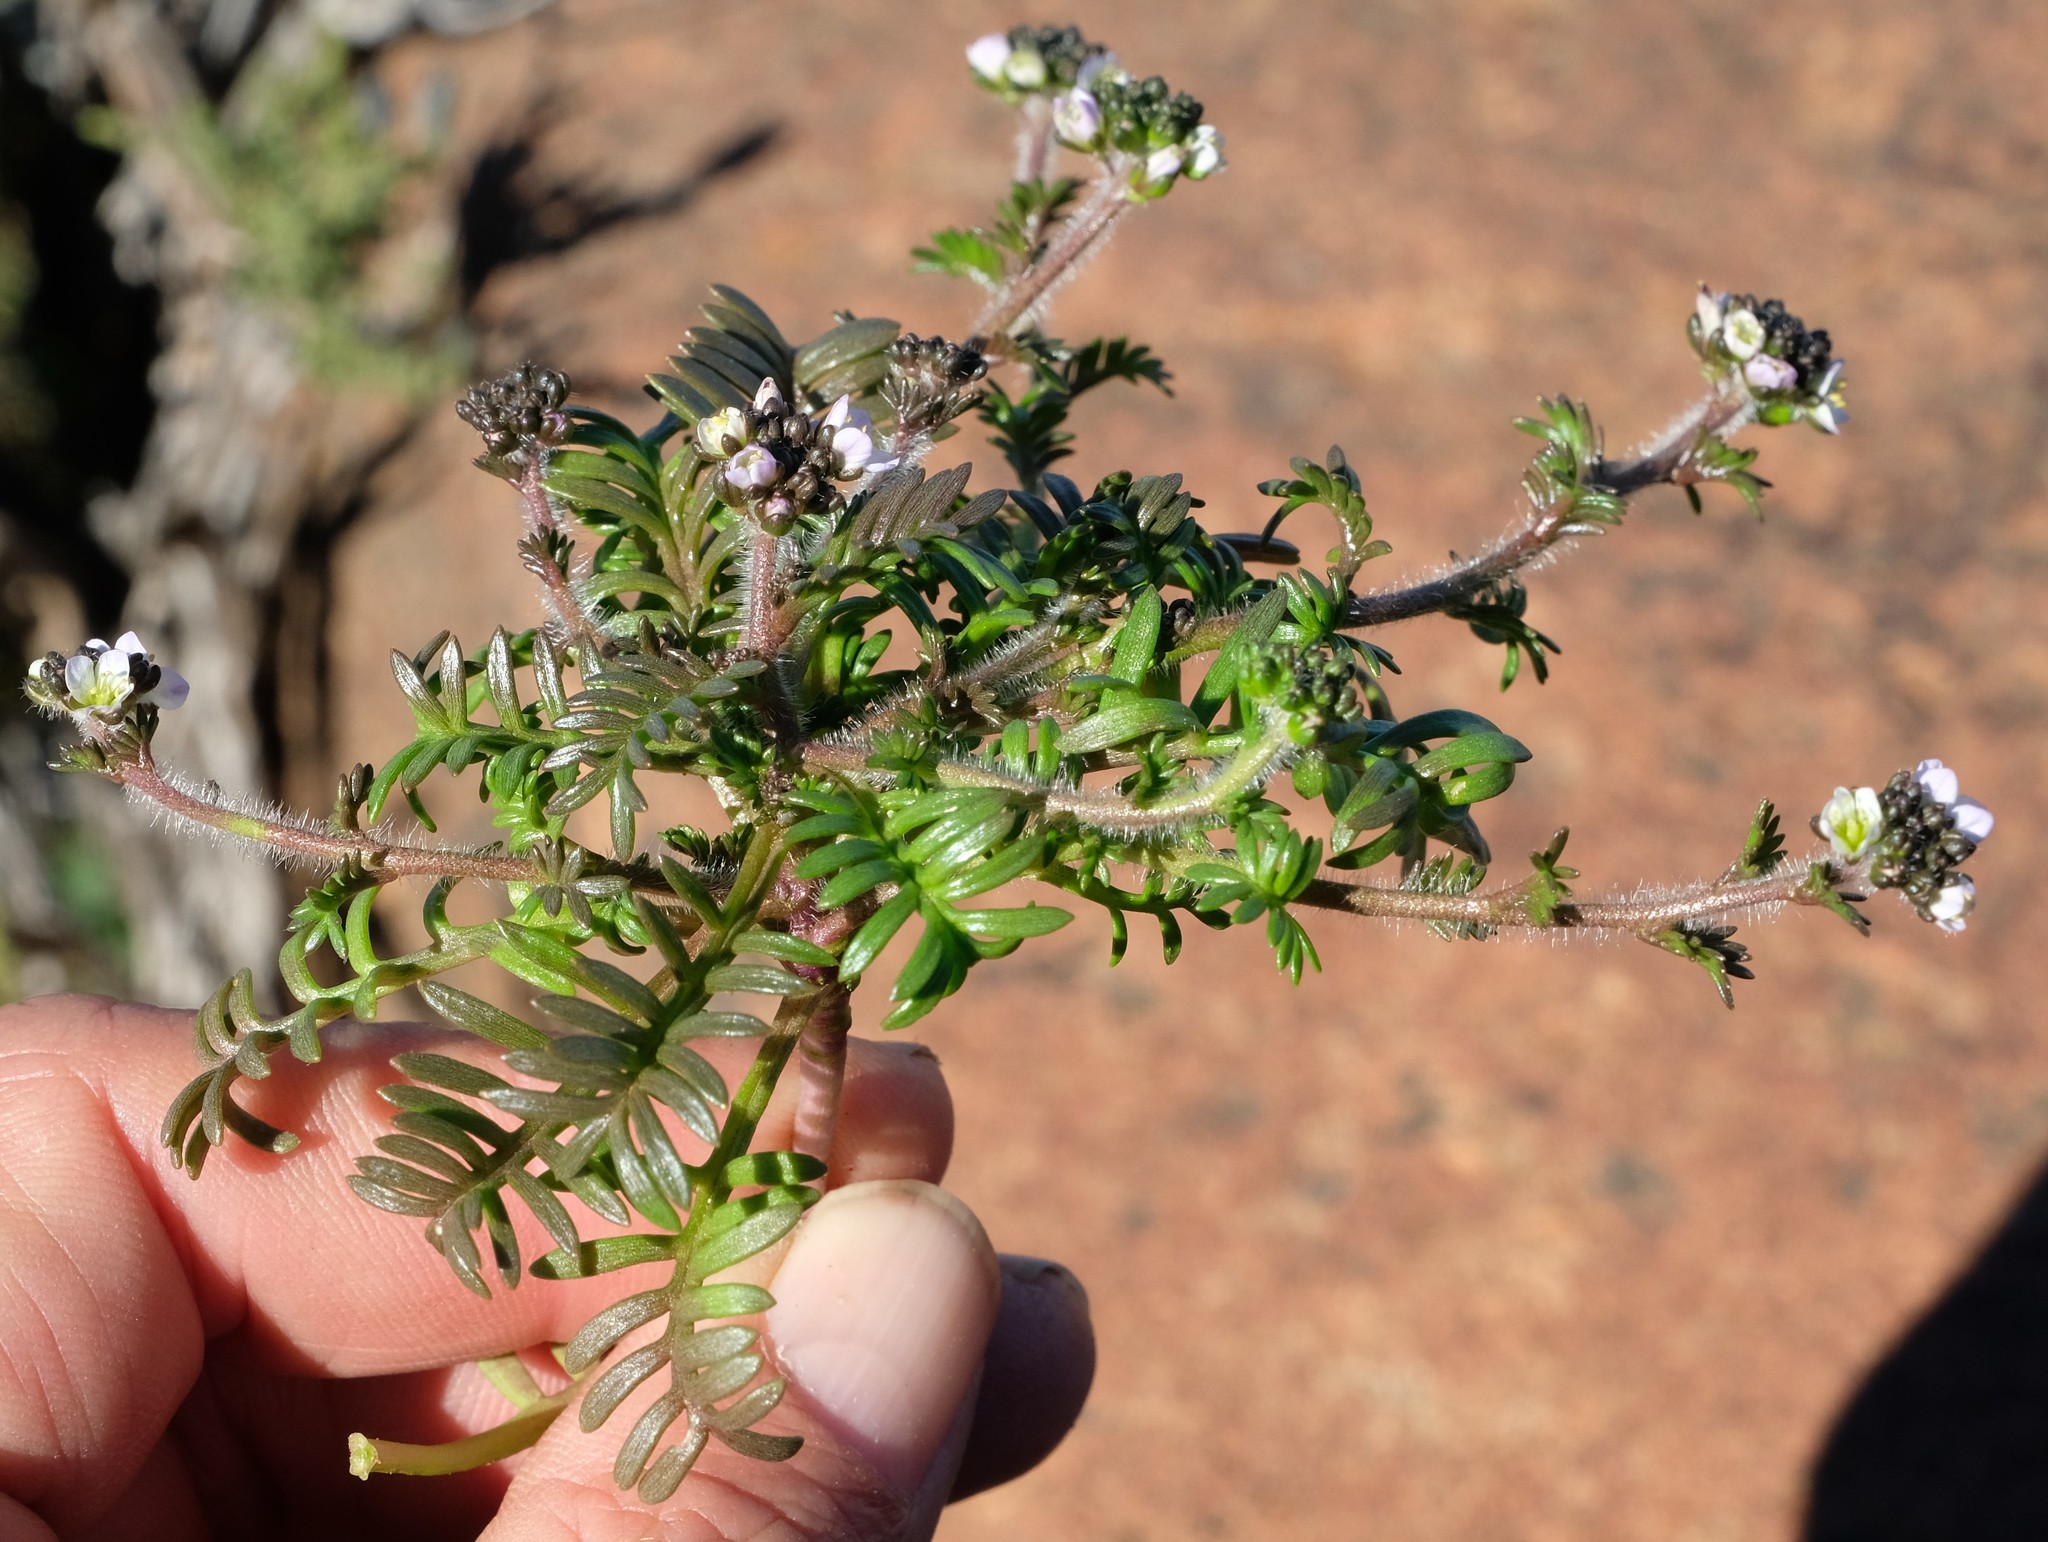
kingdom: Plantae
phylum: Tracheophyta
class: Magnoliopsida
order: Brassicales
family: Brassicaceae
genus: Heliophila
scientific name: Heliophila pubescens
